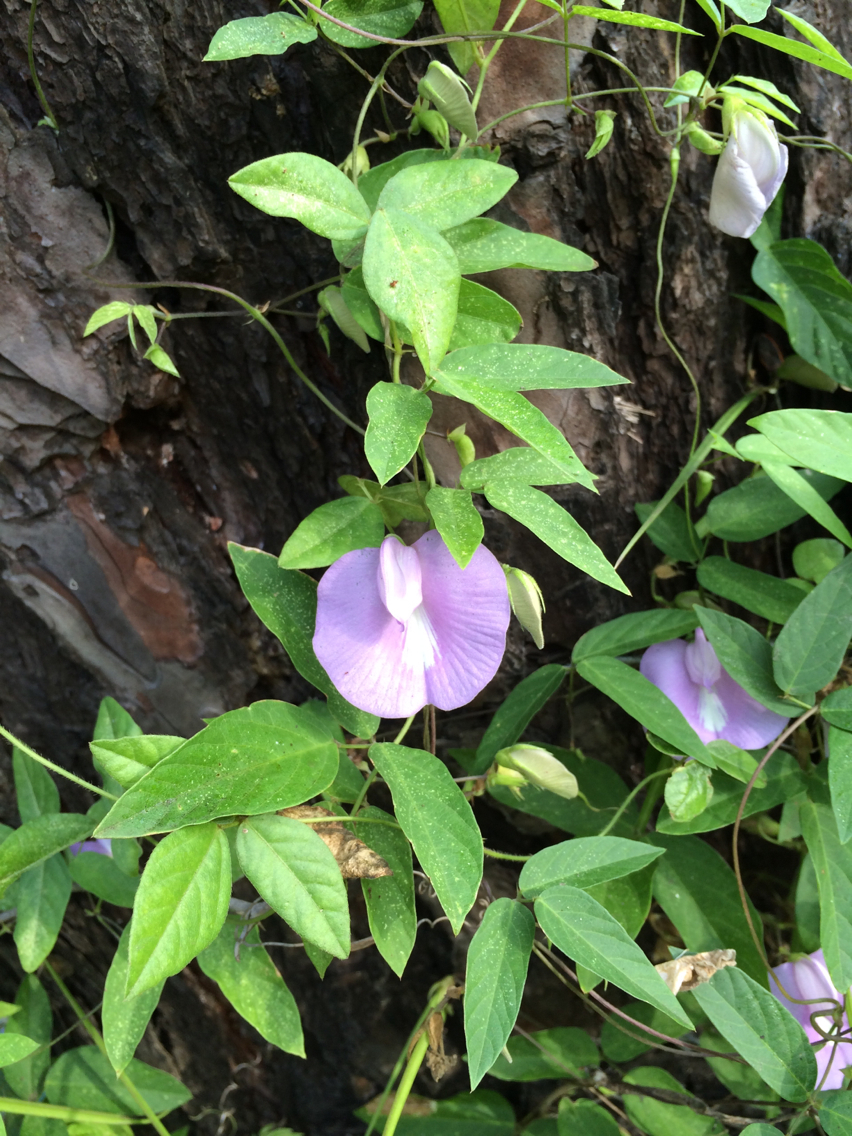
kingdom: Plantae
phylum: Tracheophyta
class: Magnoliopsida
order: Fabales
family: Fabaceae
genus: Centrosema
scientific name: Centrosema virginianum
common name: Butterfly-pea
